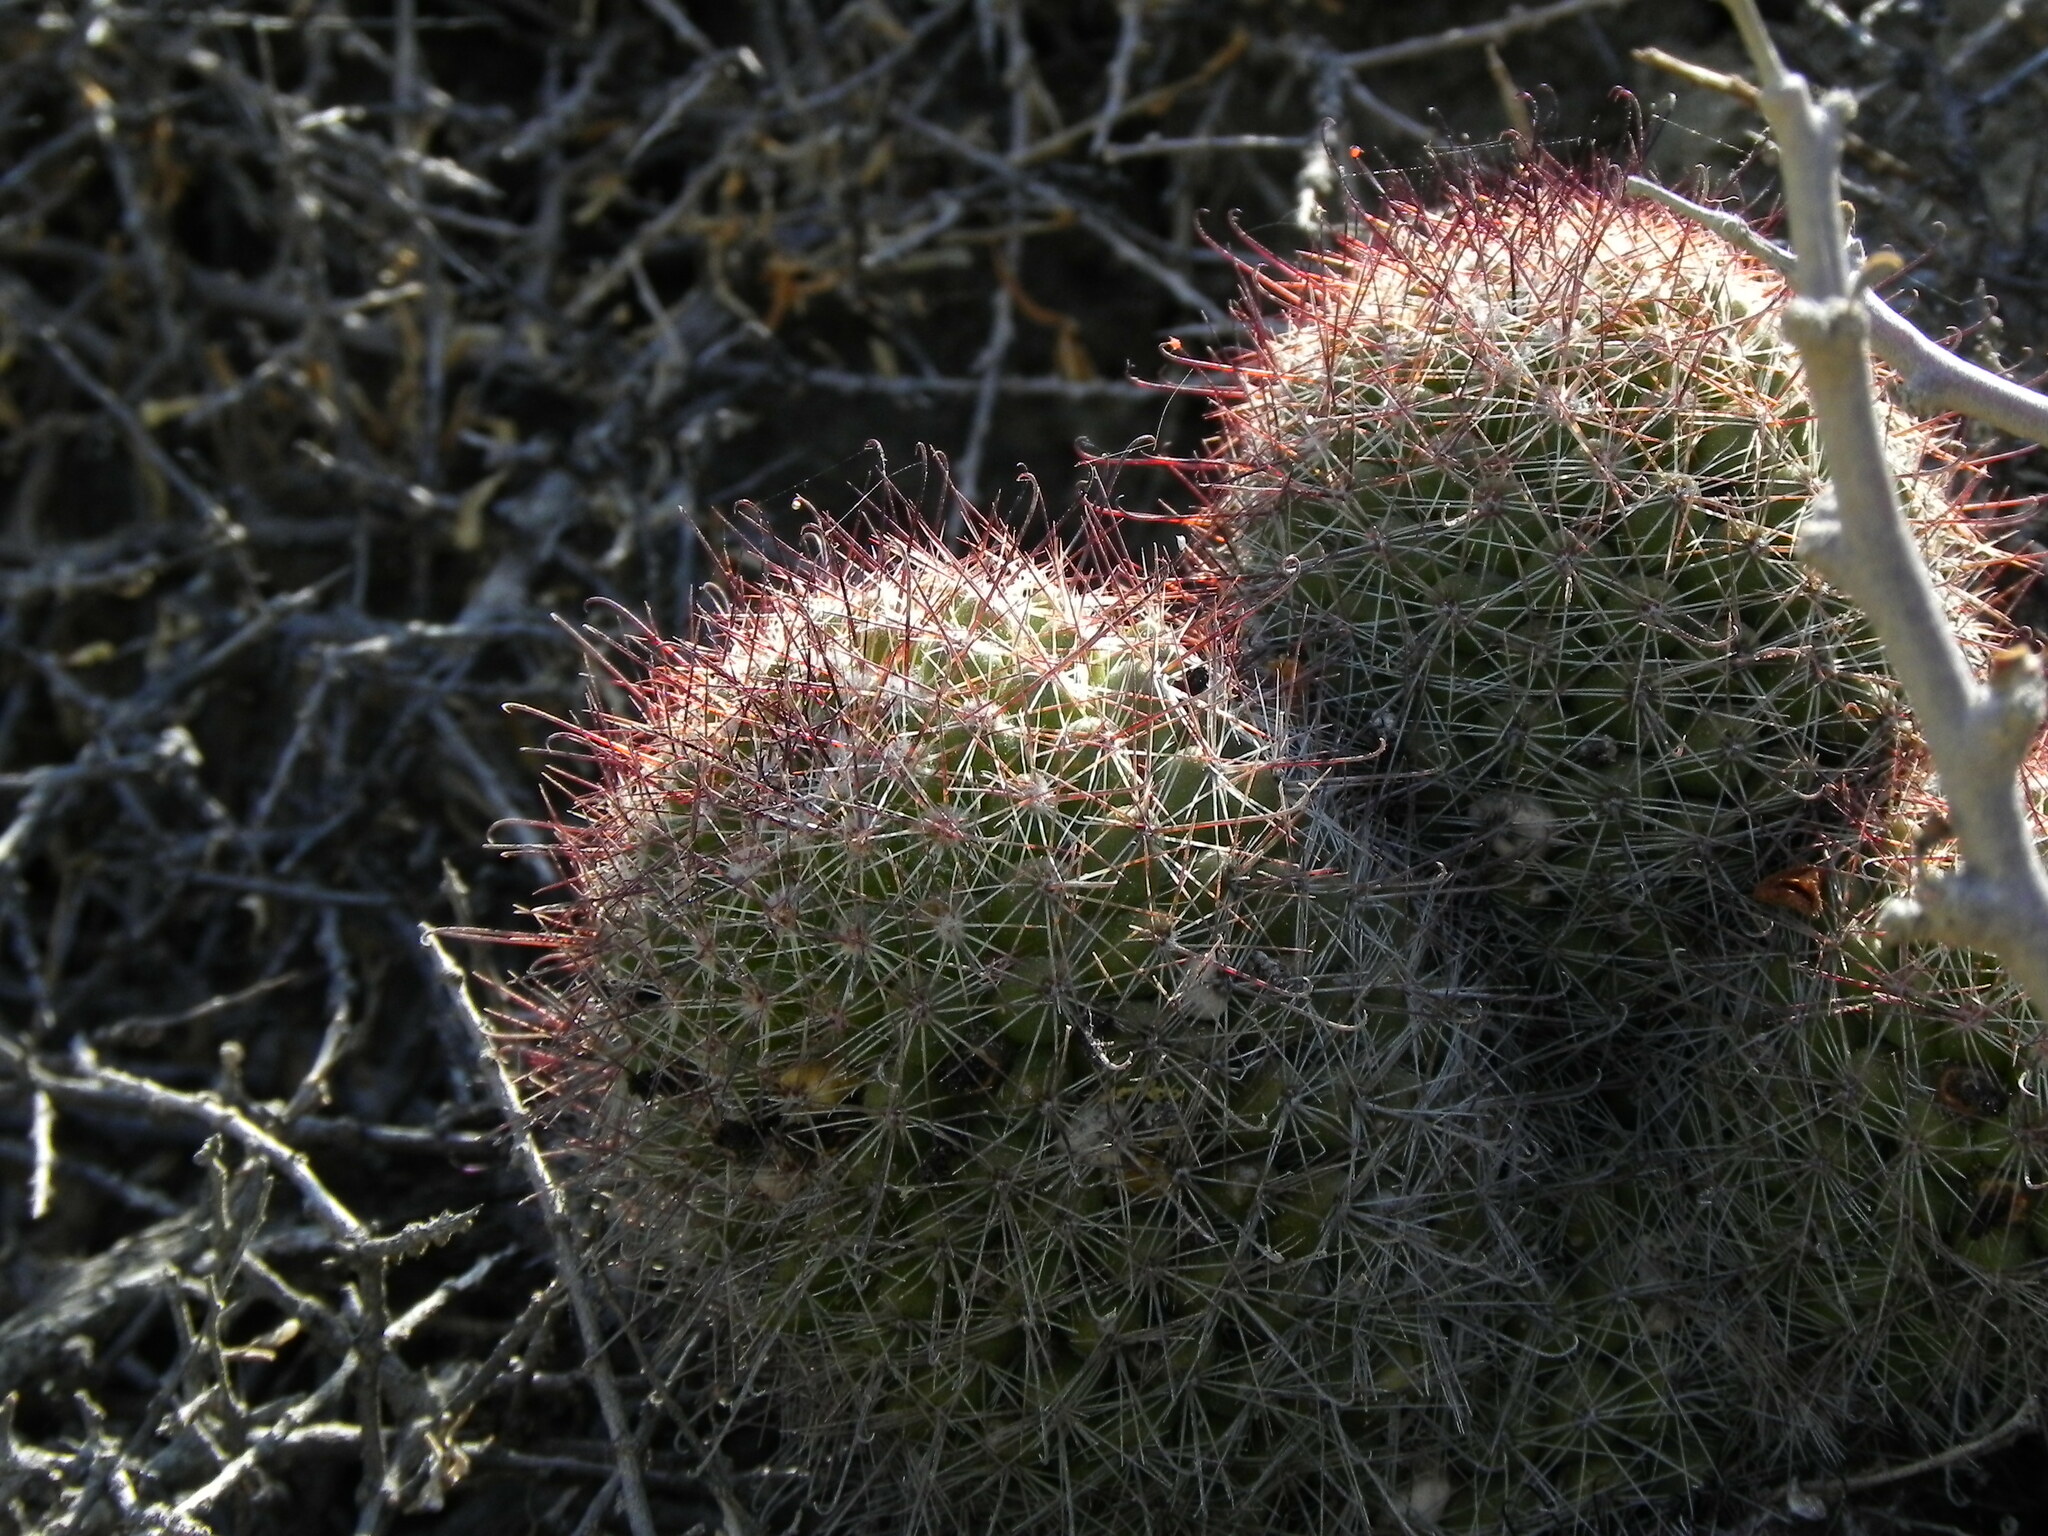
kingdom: Plantae
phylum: Tracheophyta
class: Magnoliopsida
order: Caryophyllales
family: Cactaceae
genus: Cochemiea
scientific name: Cochemiea dioica
